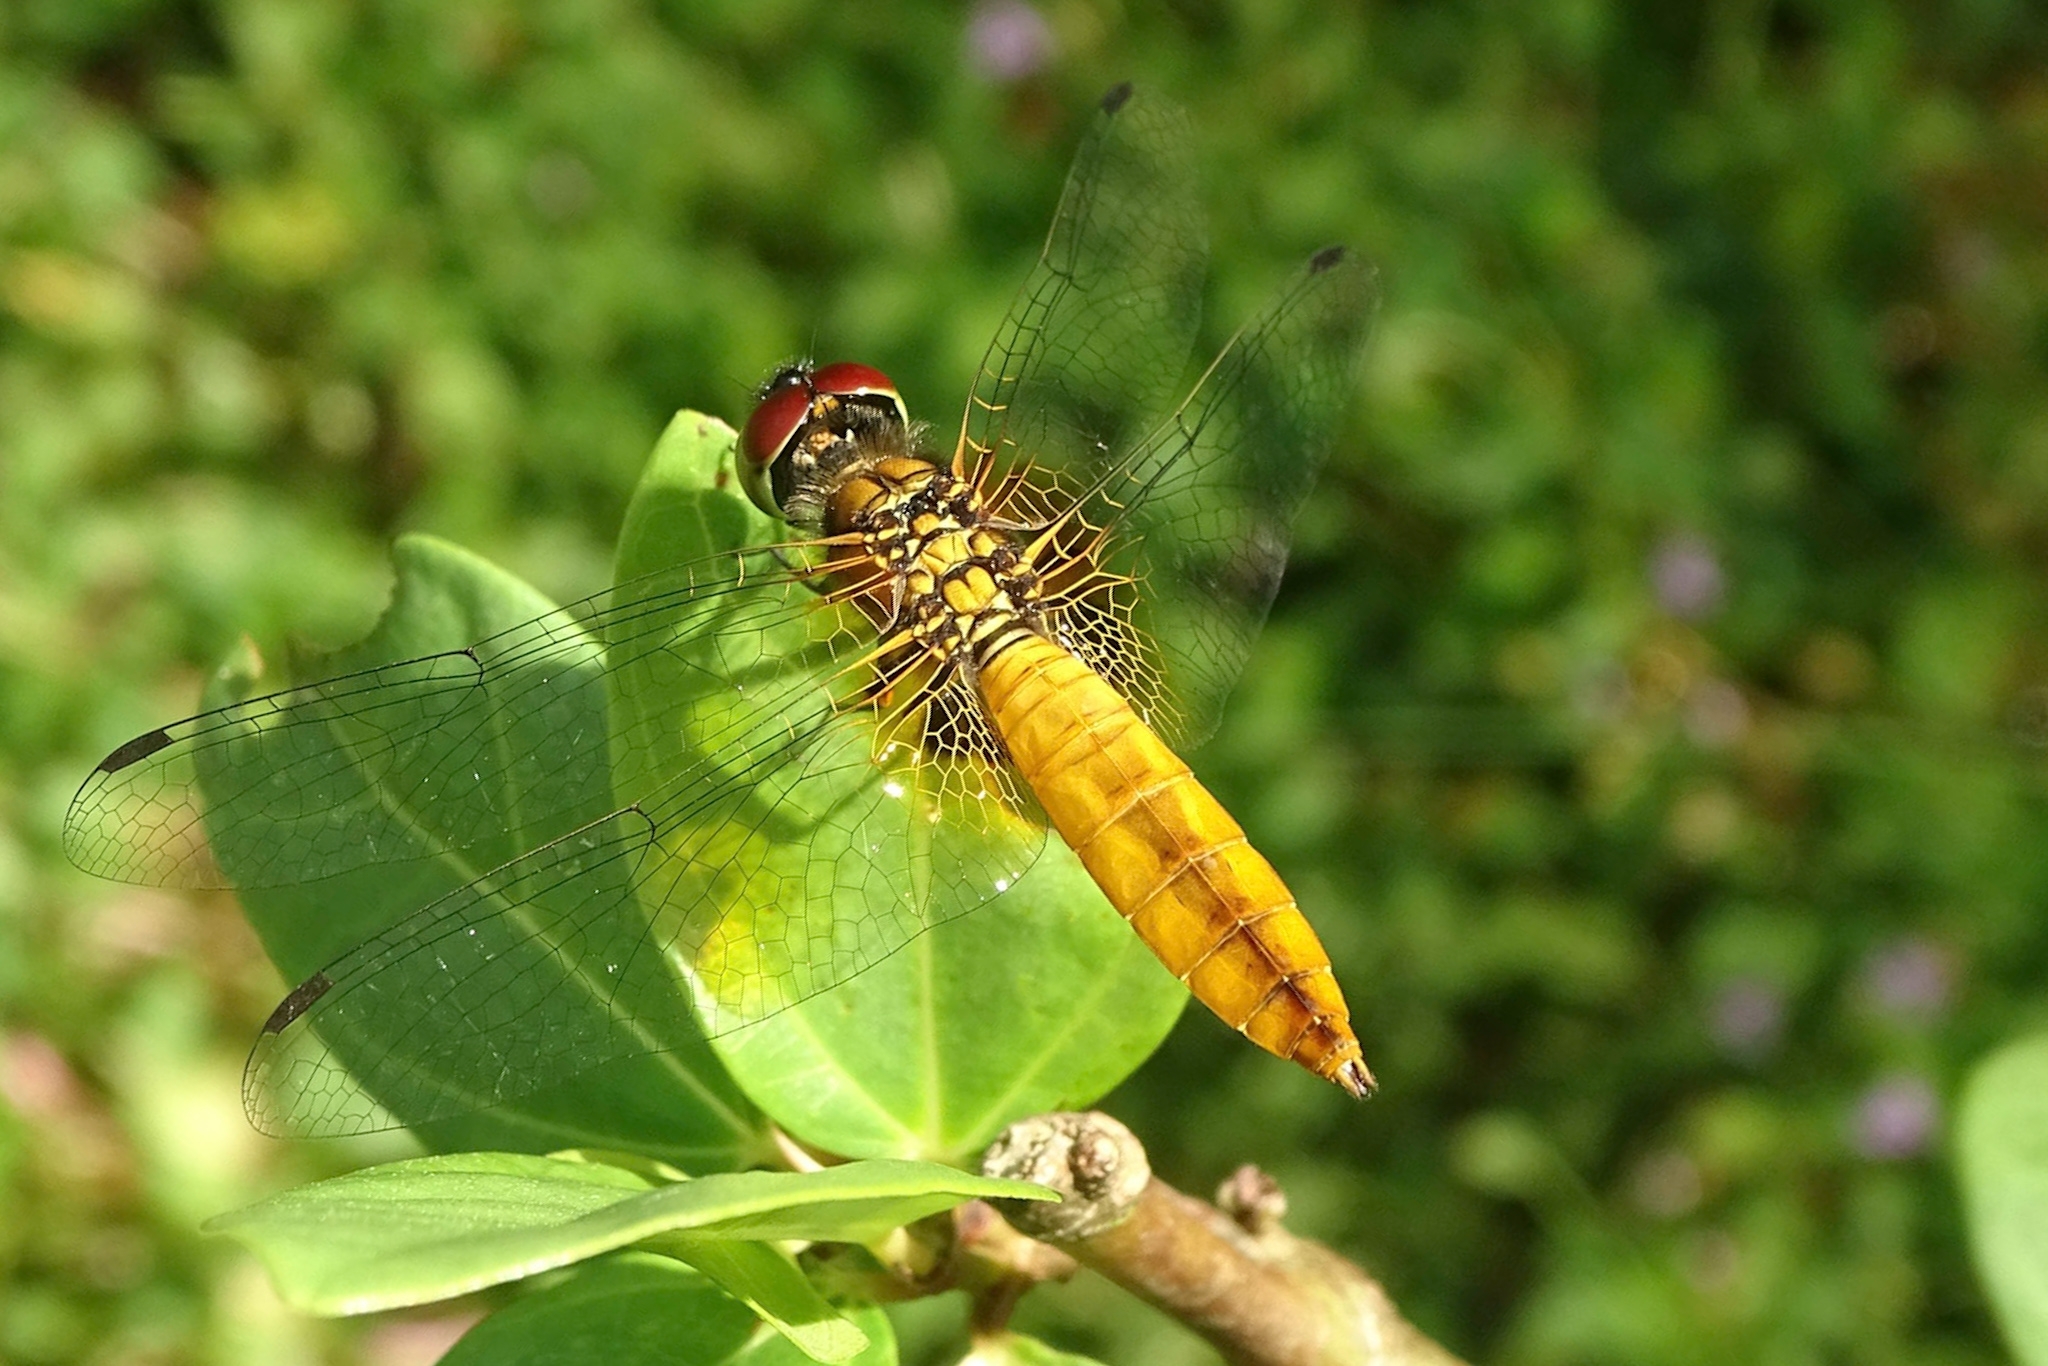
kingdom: Animalia
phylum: Arthropoda
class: Insecta
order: Odonata
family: Libellulidae
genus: Aethriamanta
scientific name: Aethriamanta brevipennis
